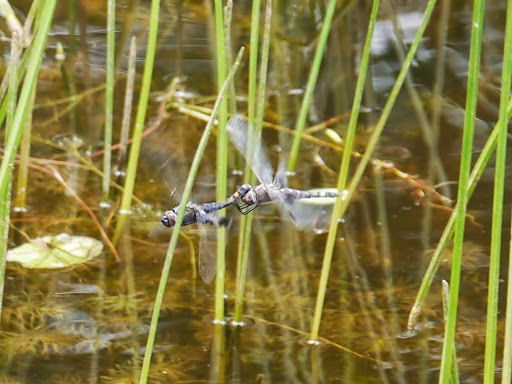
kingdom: Animalia
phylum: Arthropoda
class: Insecta
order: Odonata
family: Libellulidae
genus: Tramea
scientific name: Tramea lacerata
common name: Black saddlebags
